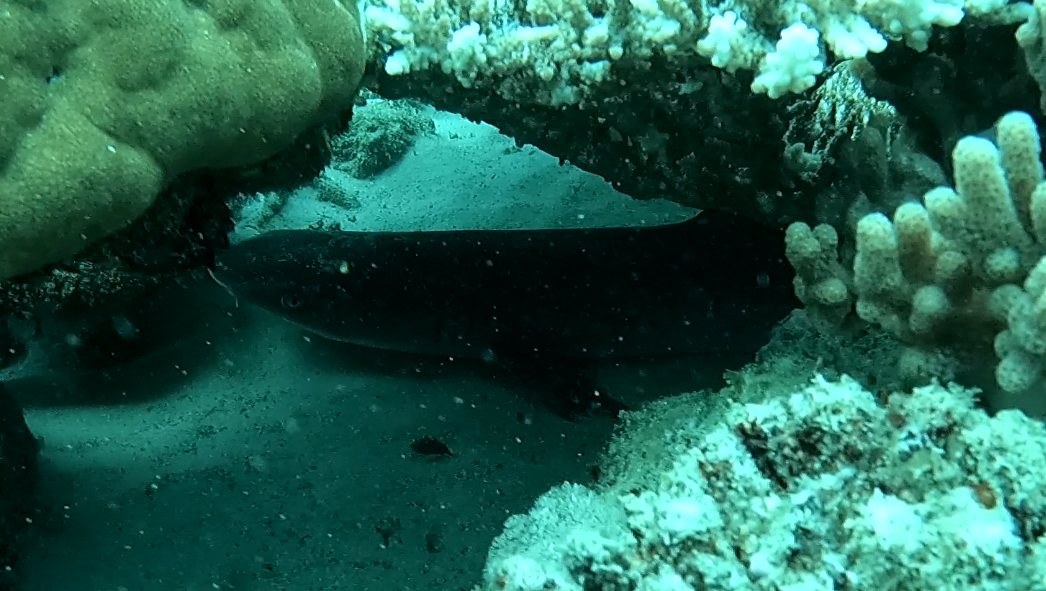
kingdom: Animalia
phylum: Chordata
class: Elasmobranchii
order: Carcharhiniformes
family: Carcharhinidae
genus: Triaenodon
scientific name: Triaenodon obesus
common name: Whitetip reef shark
